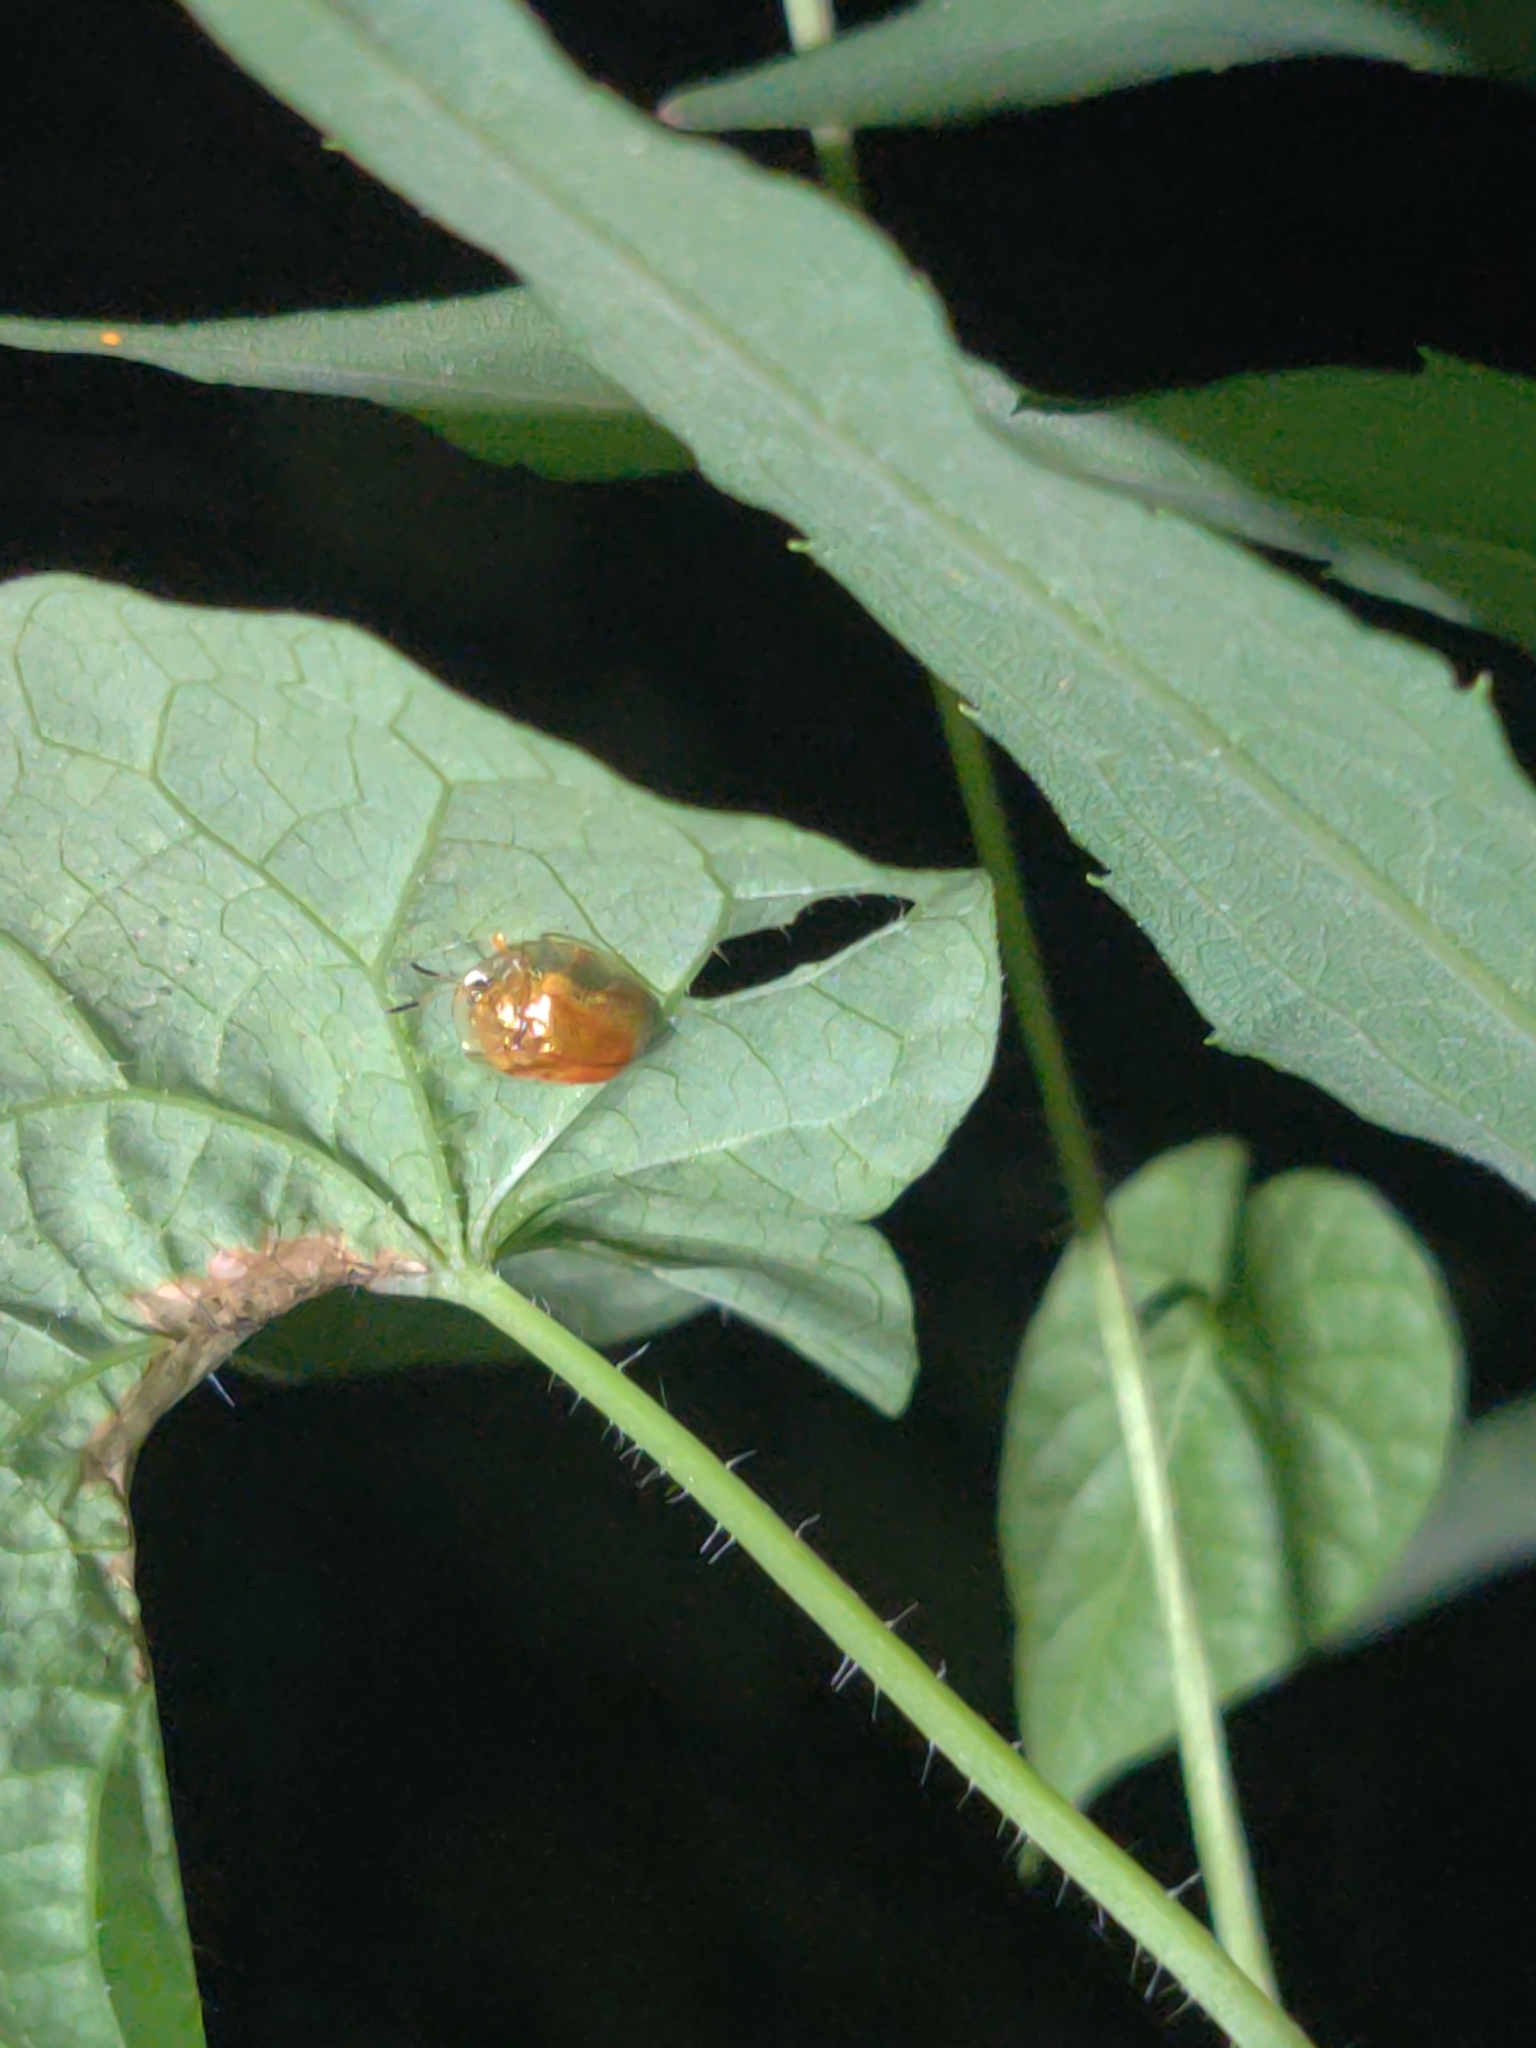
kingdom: Animalia
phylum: Arthropoda
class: Insecta
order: Coleoptera
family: Chrysomelidae
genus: Charidotella
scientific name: Charidotella sexpunctata
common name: Golden tortoise beetle
